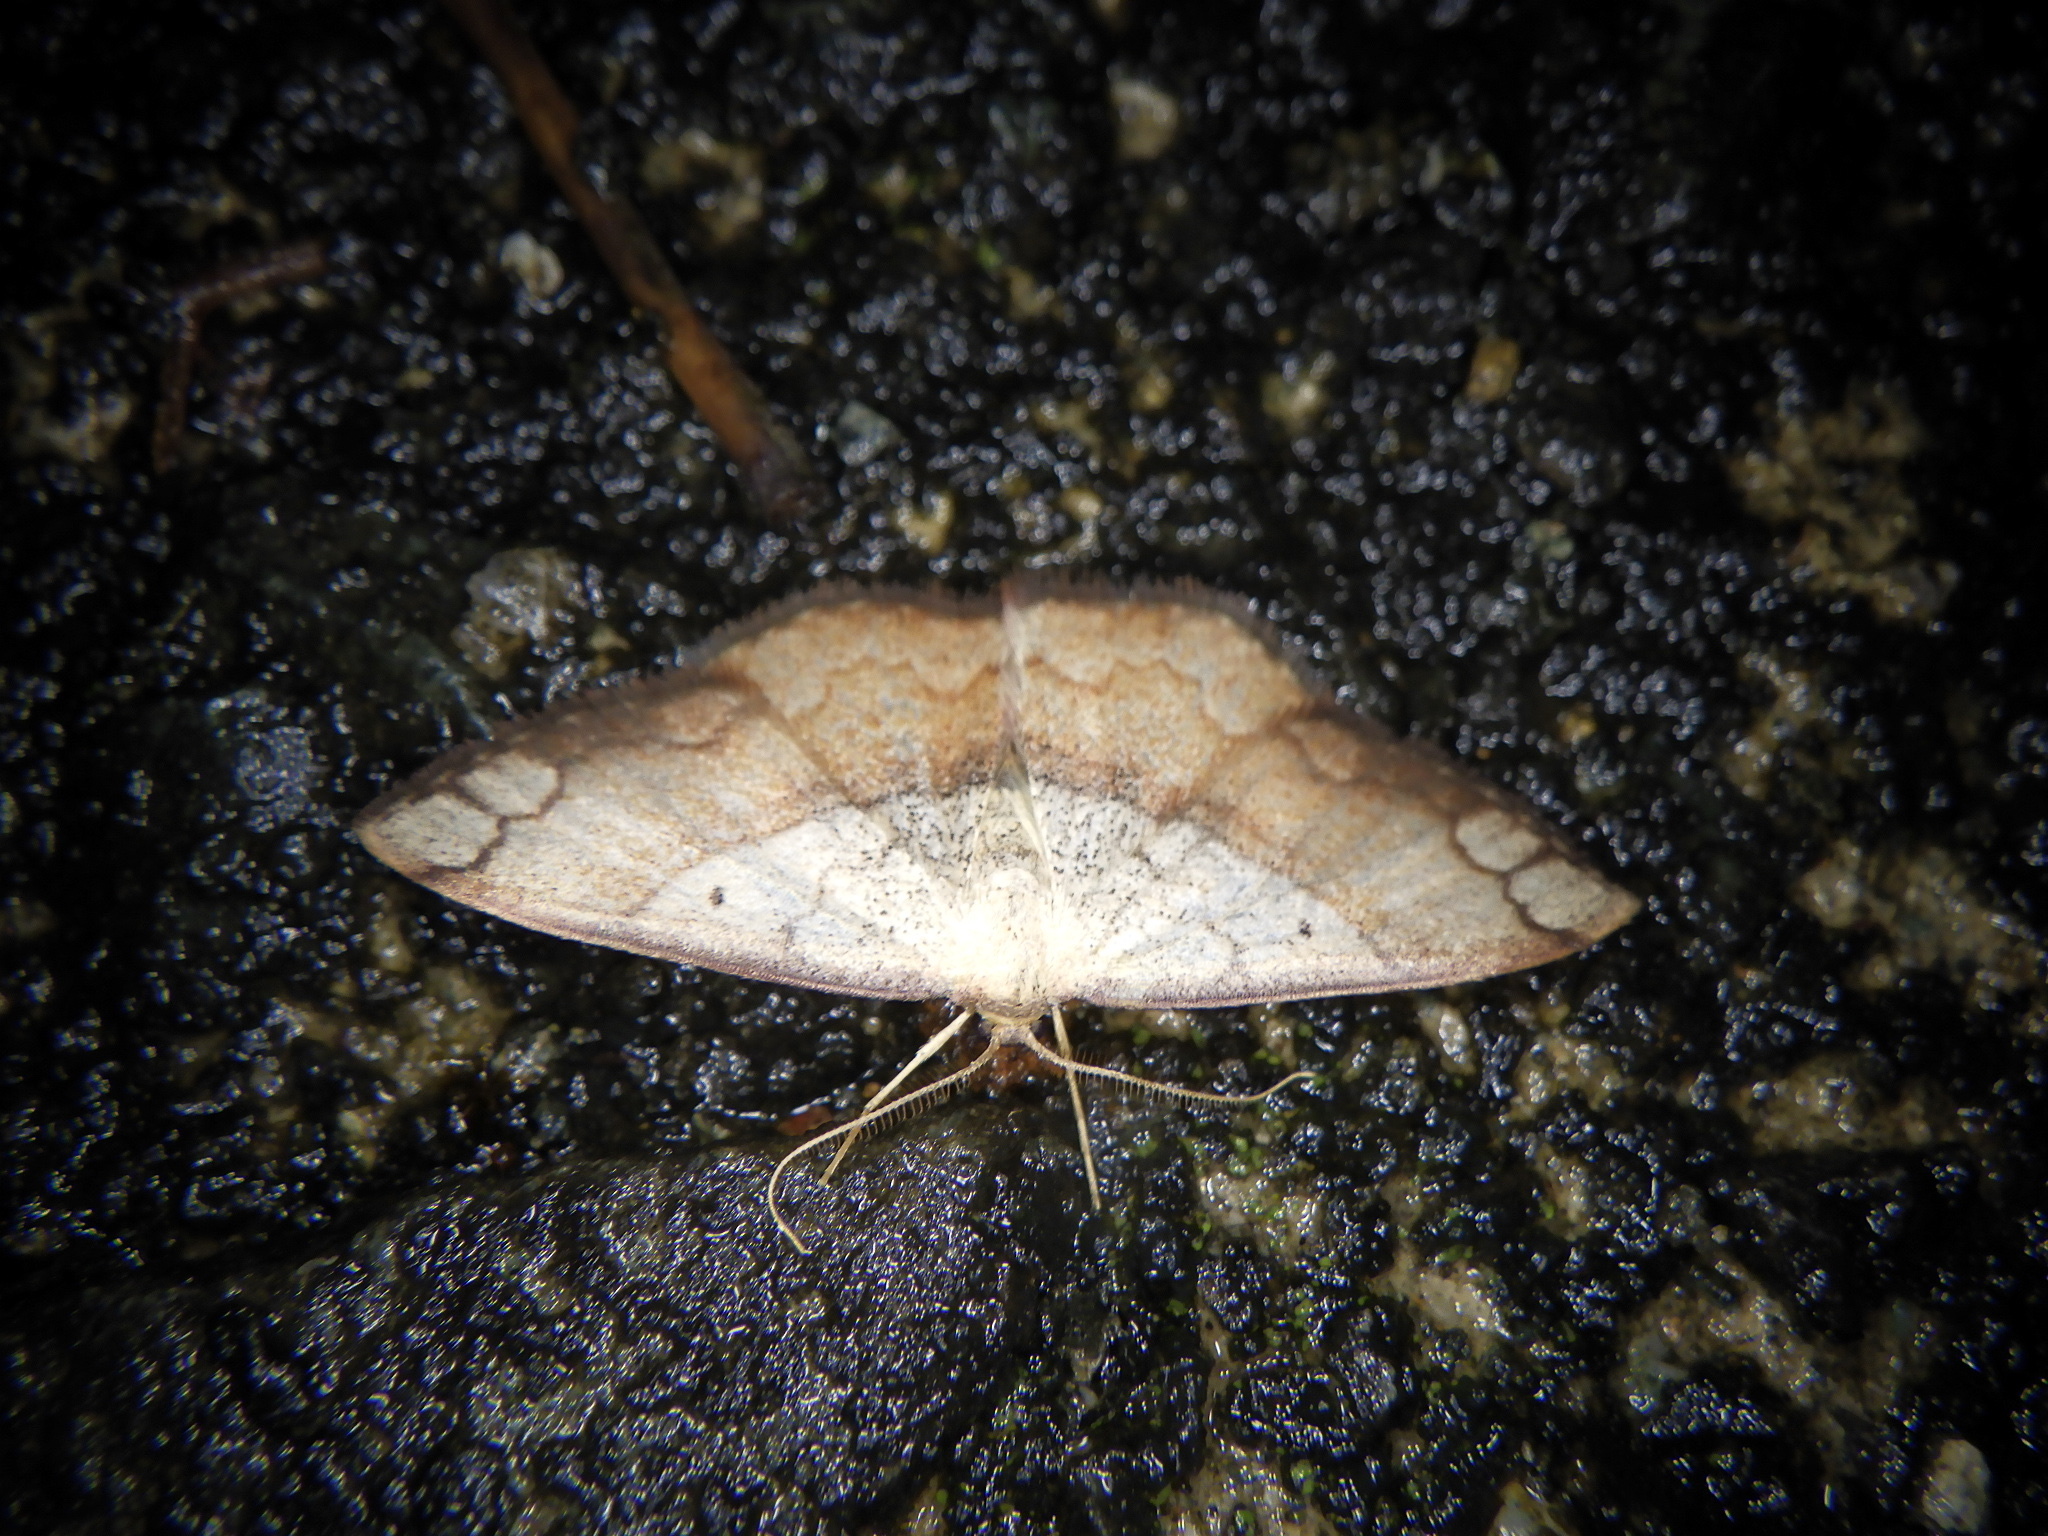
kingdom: Animalia
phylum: Arthropoda
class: Insecta
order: Lepidoptera
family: Geometridae
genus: Pylargosceles
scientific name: Pylargosceles steganioides
